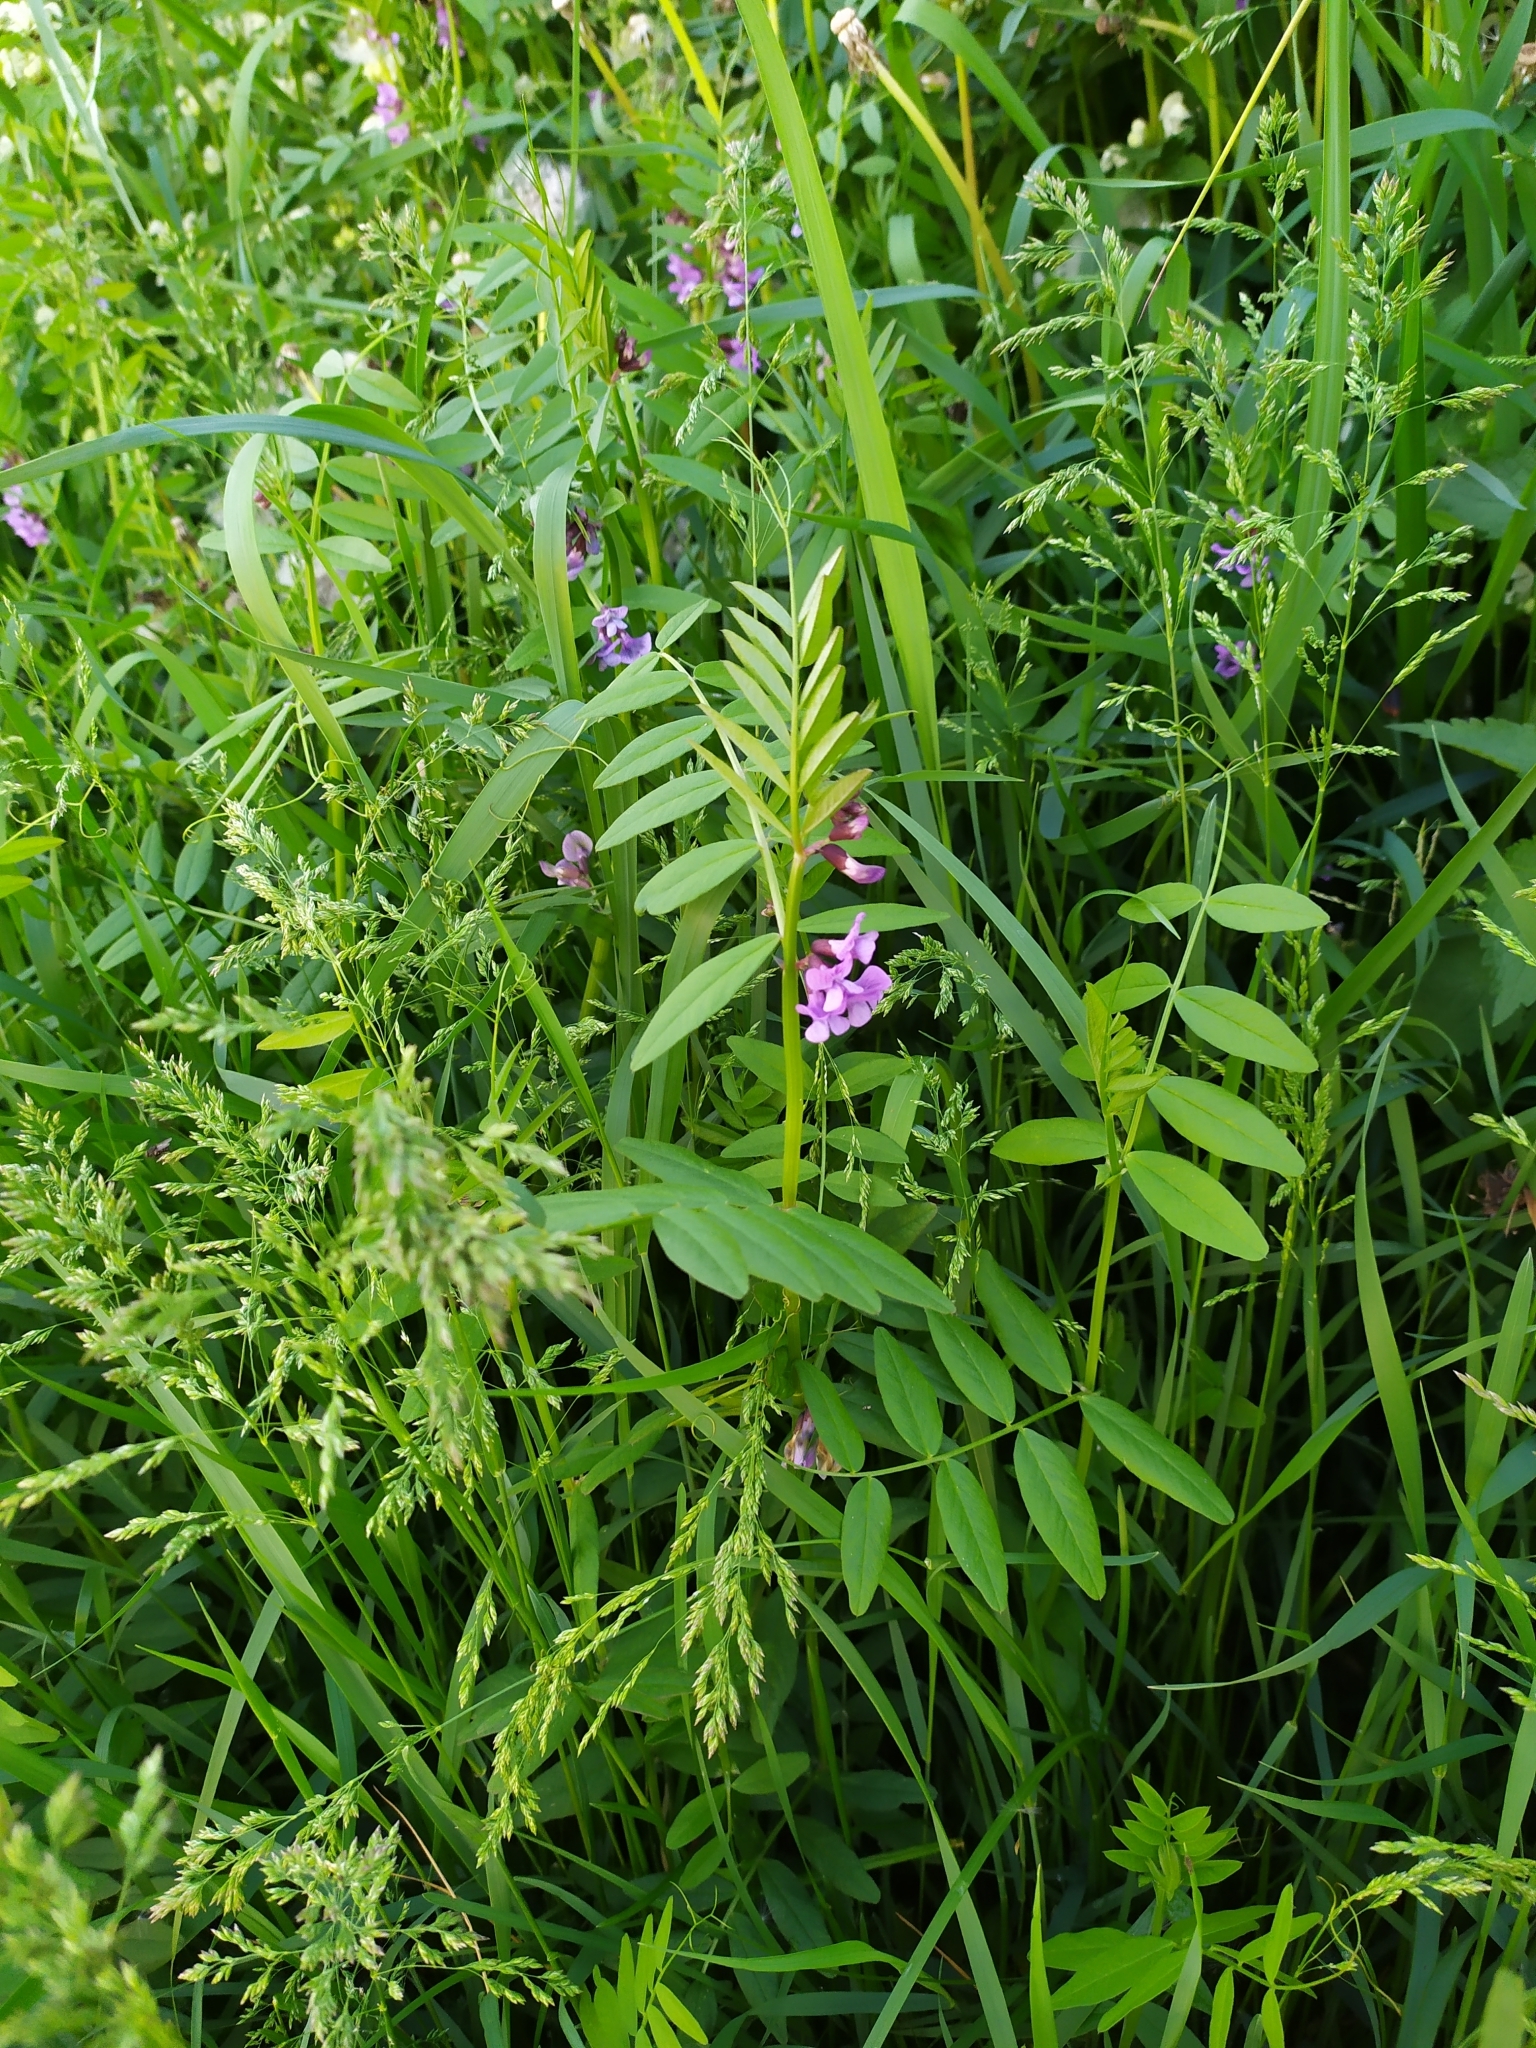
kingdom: Plantae
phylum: Tracheophyta
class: Magnoliopsida
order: Fabales
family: Fabaceae
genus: Vicia
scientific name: Vicia sepium
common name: Bush vetch
